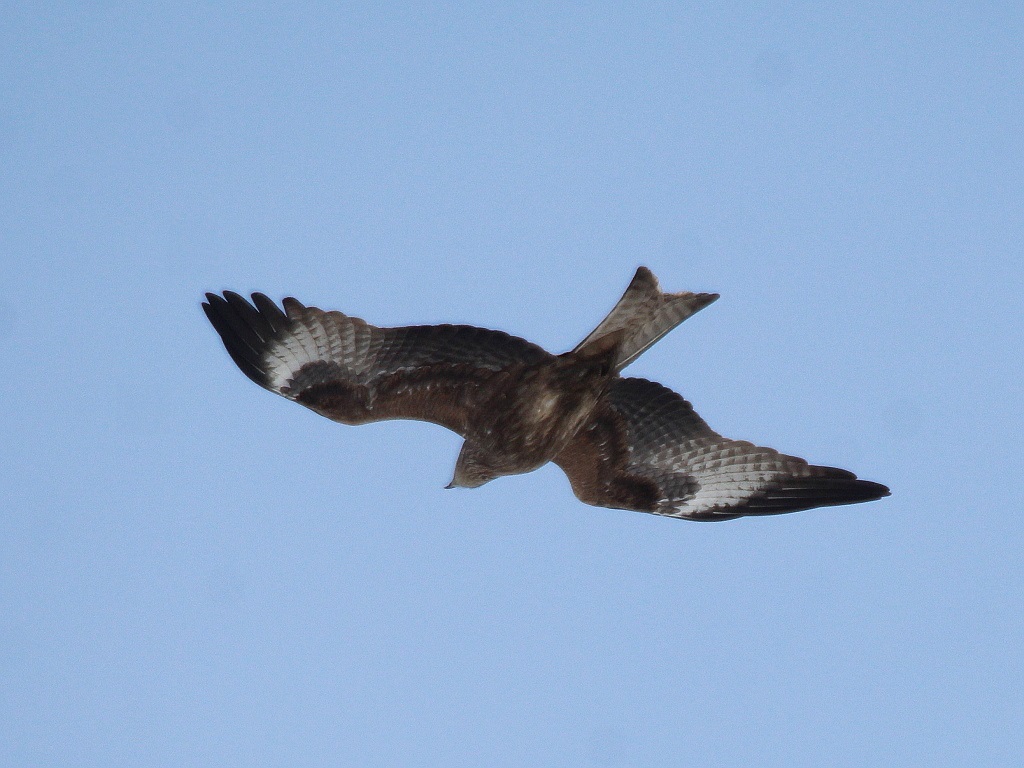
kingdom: Animalia
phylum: Chordata
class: Aves
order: Accipitriformes
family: Accipitridae
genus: Milvus
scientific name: Milvus migrans
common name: Black kite
